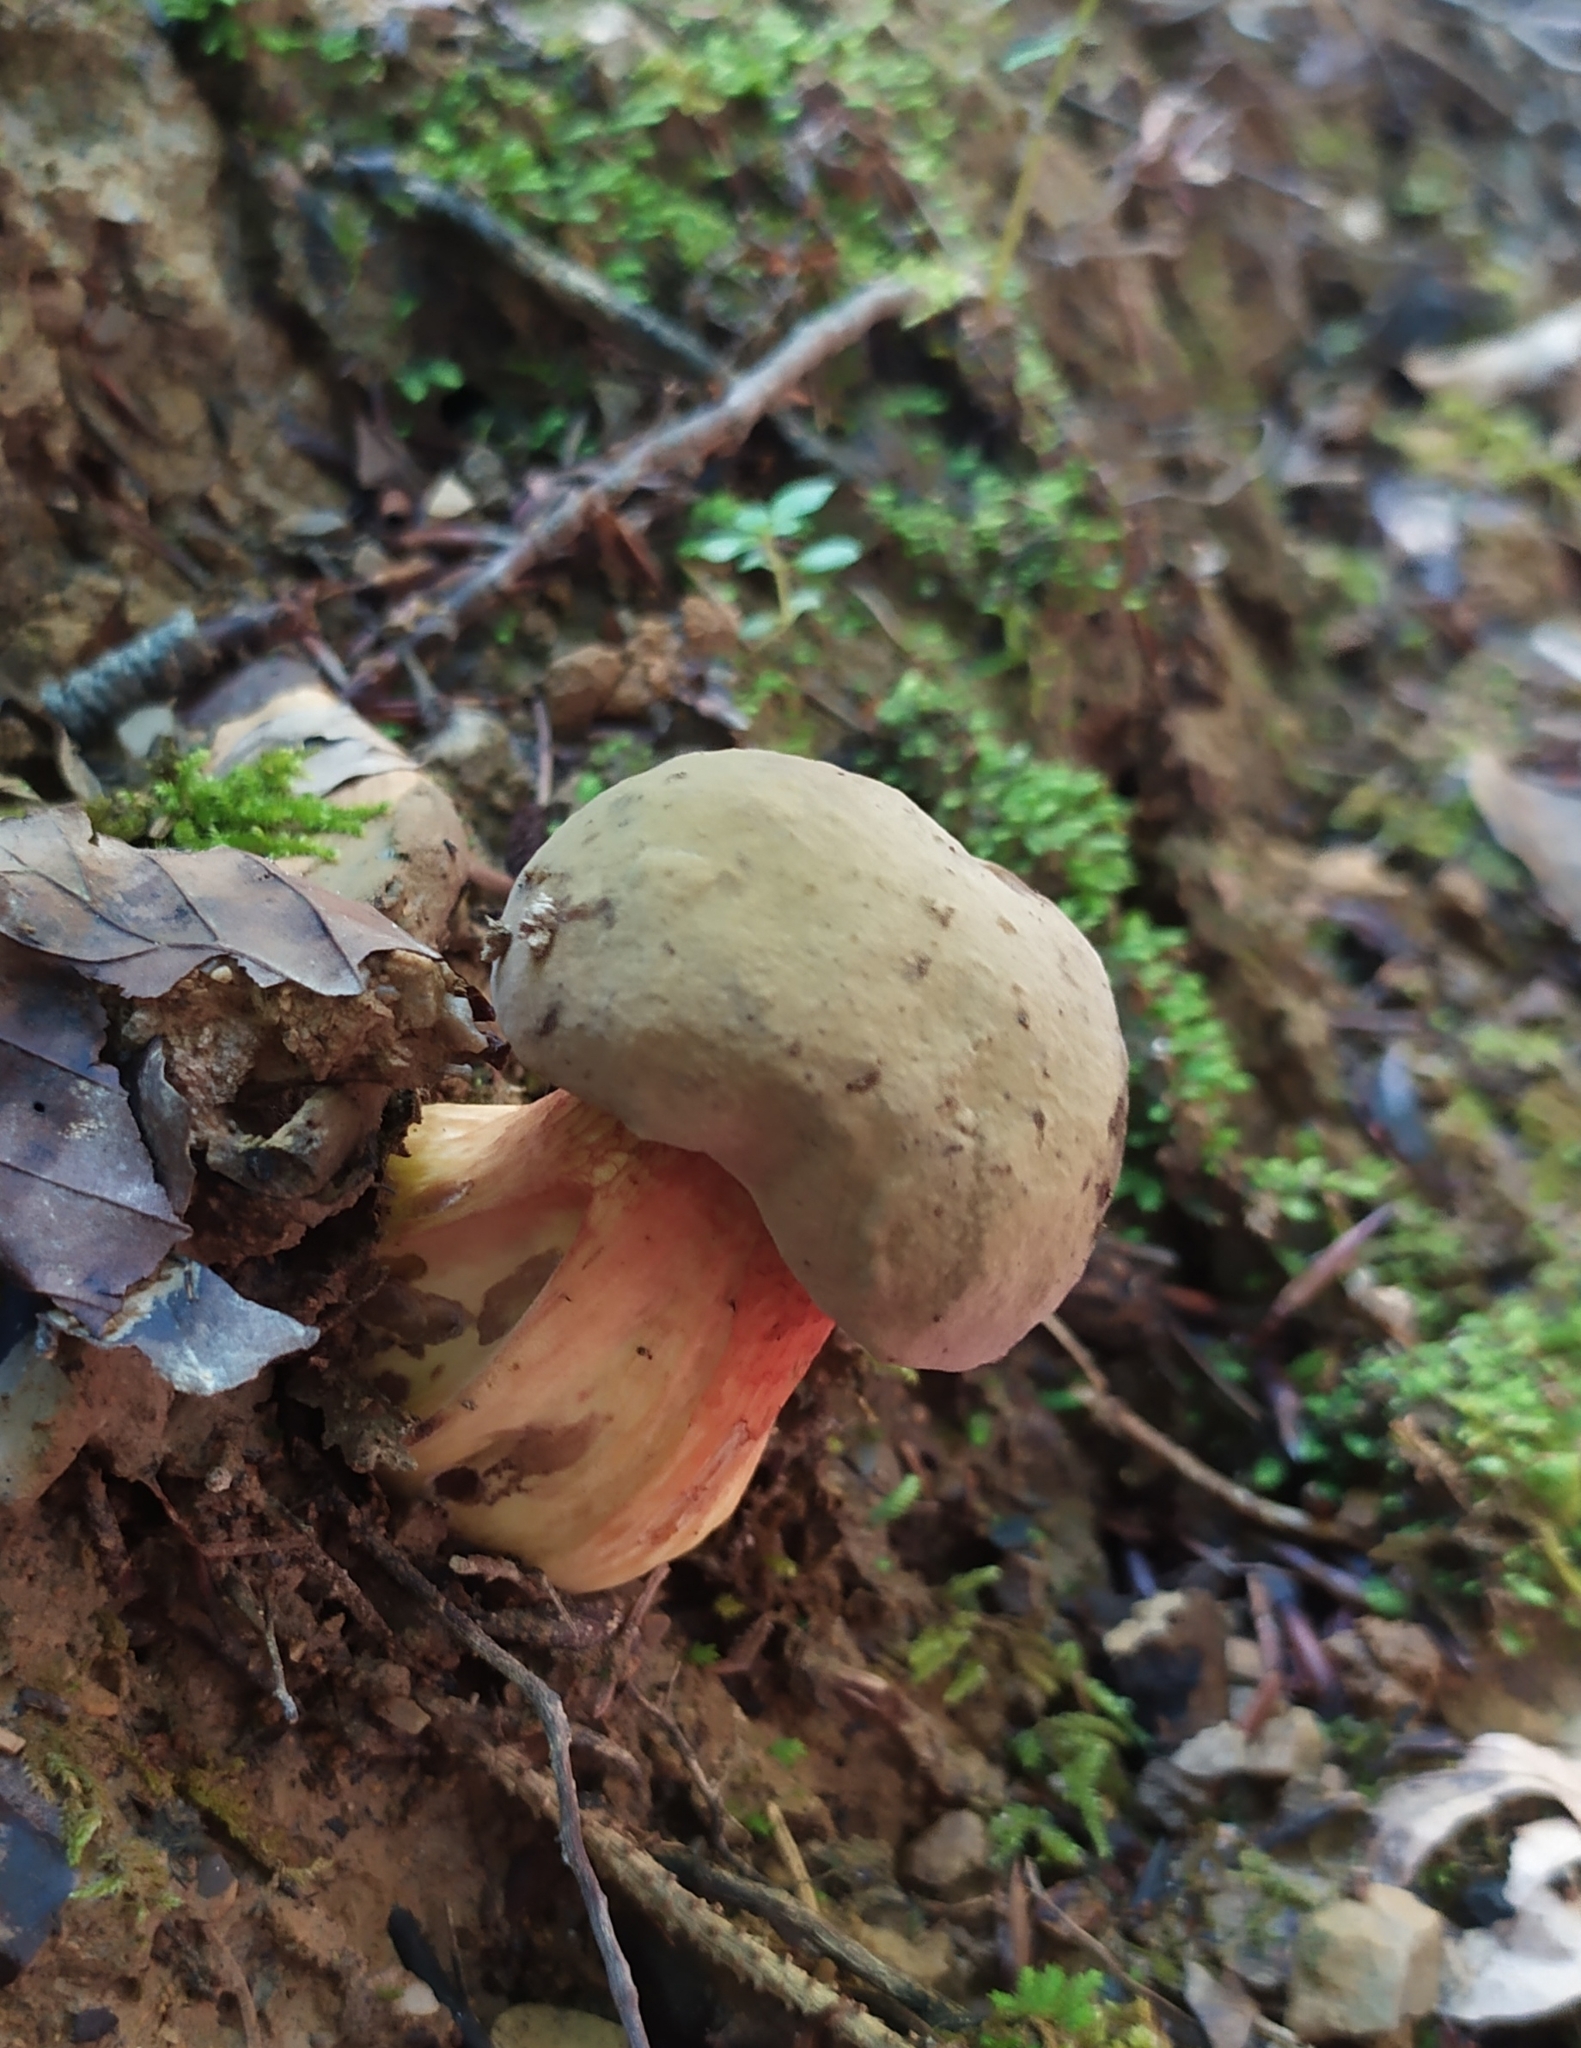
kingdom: Fungi
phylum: Basidiomycota
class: Agaricomycetes
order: Boletales
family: Boletaceae
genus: Suillellus
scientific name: Suillellus luridus
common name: Lurid bolete
